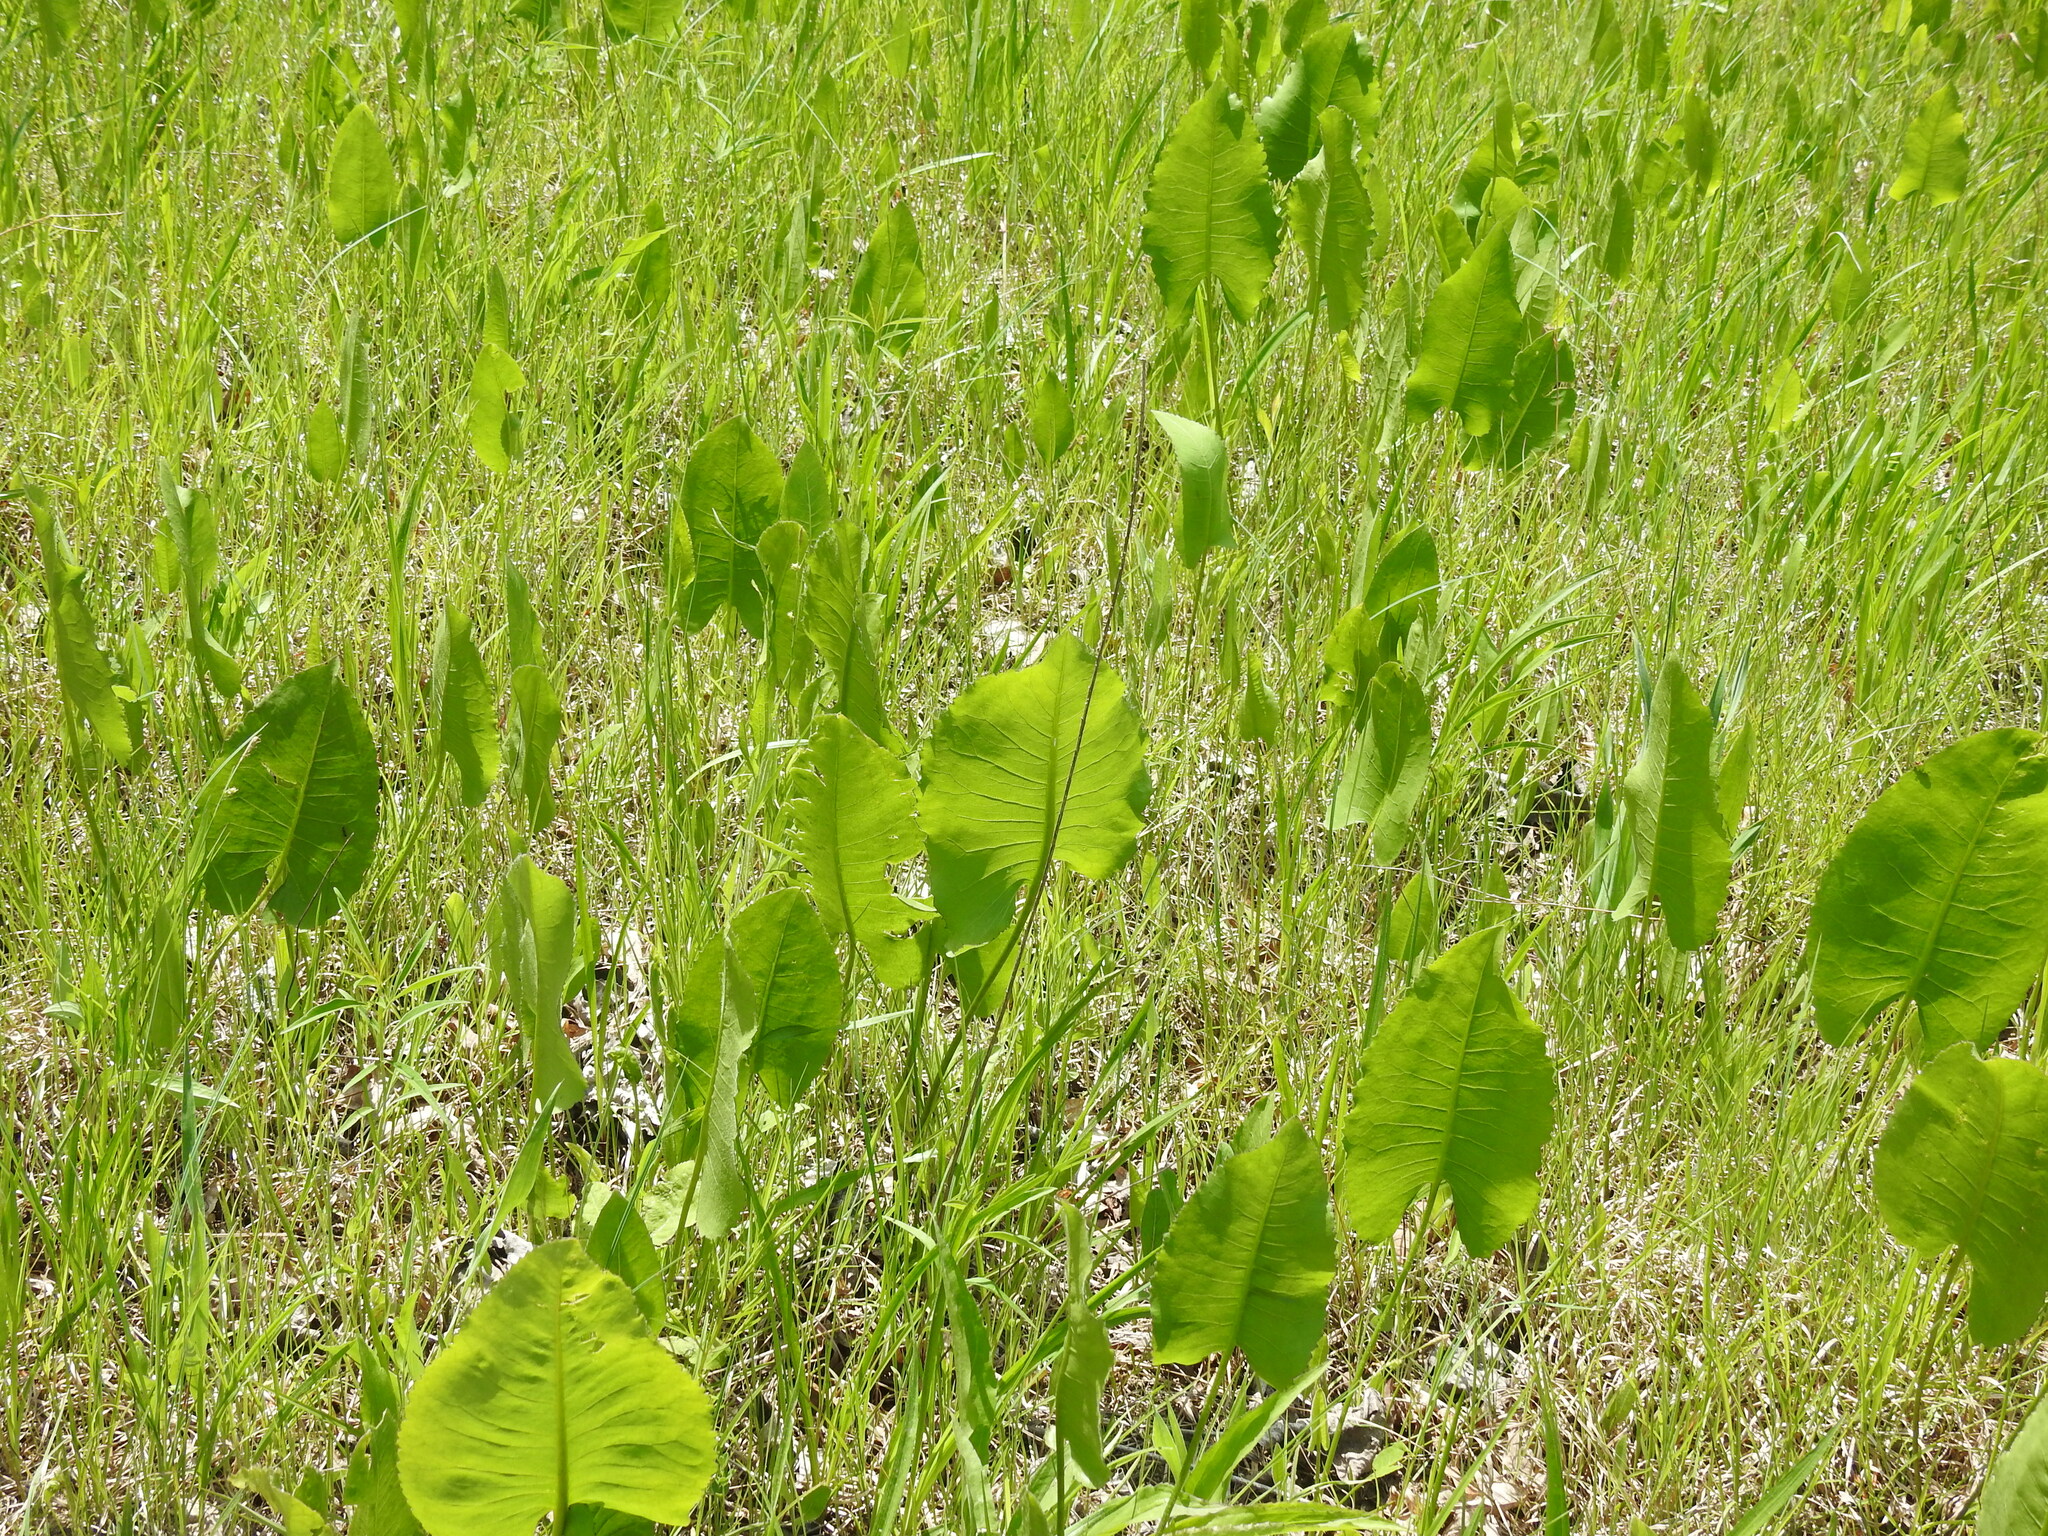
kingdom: Plantae
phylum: Tracheophyta
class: Magnoliopsida
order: Asterales
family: Asteraceae
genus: Silphium
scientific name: Silphium terebinthinaceum
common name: Basal-leaf rosinweed
